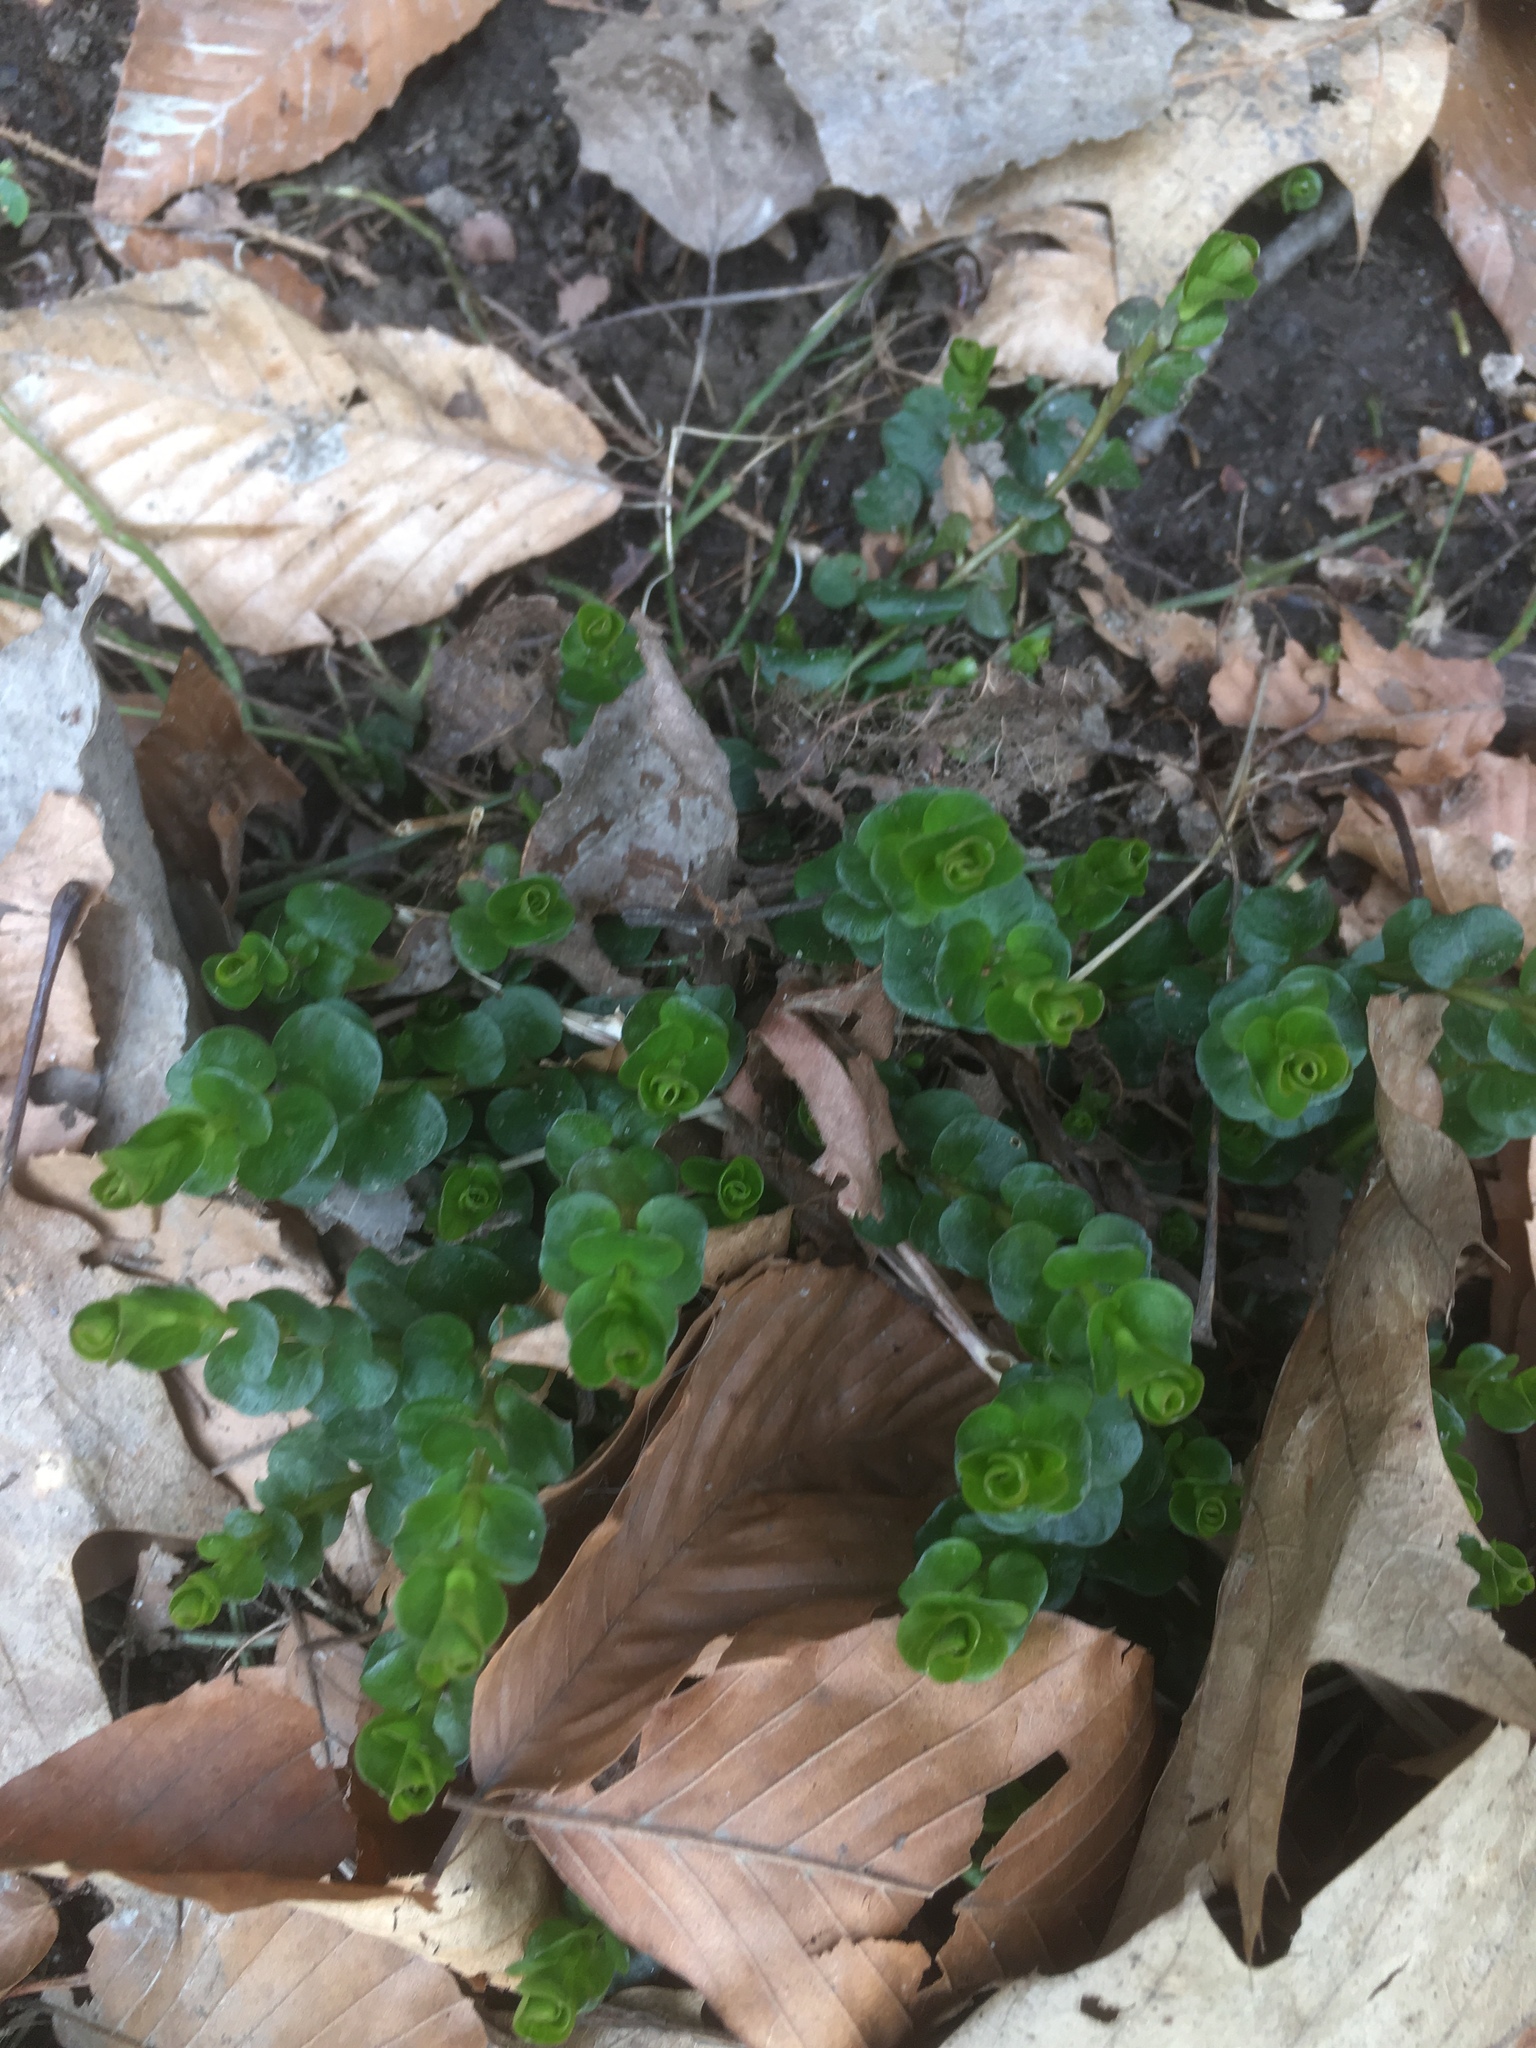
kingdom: Plantae
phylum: Tracheophyta
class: Magnoliopsida
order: Ericales
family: Primulaceae
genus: Lysimachia
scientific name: Lysimachia nummularia
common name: Moneywort
